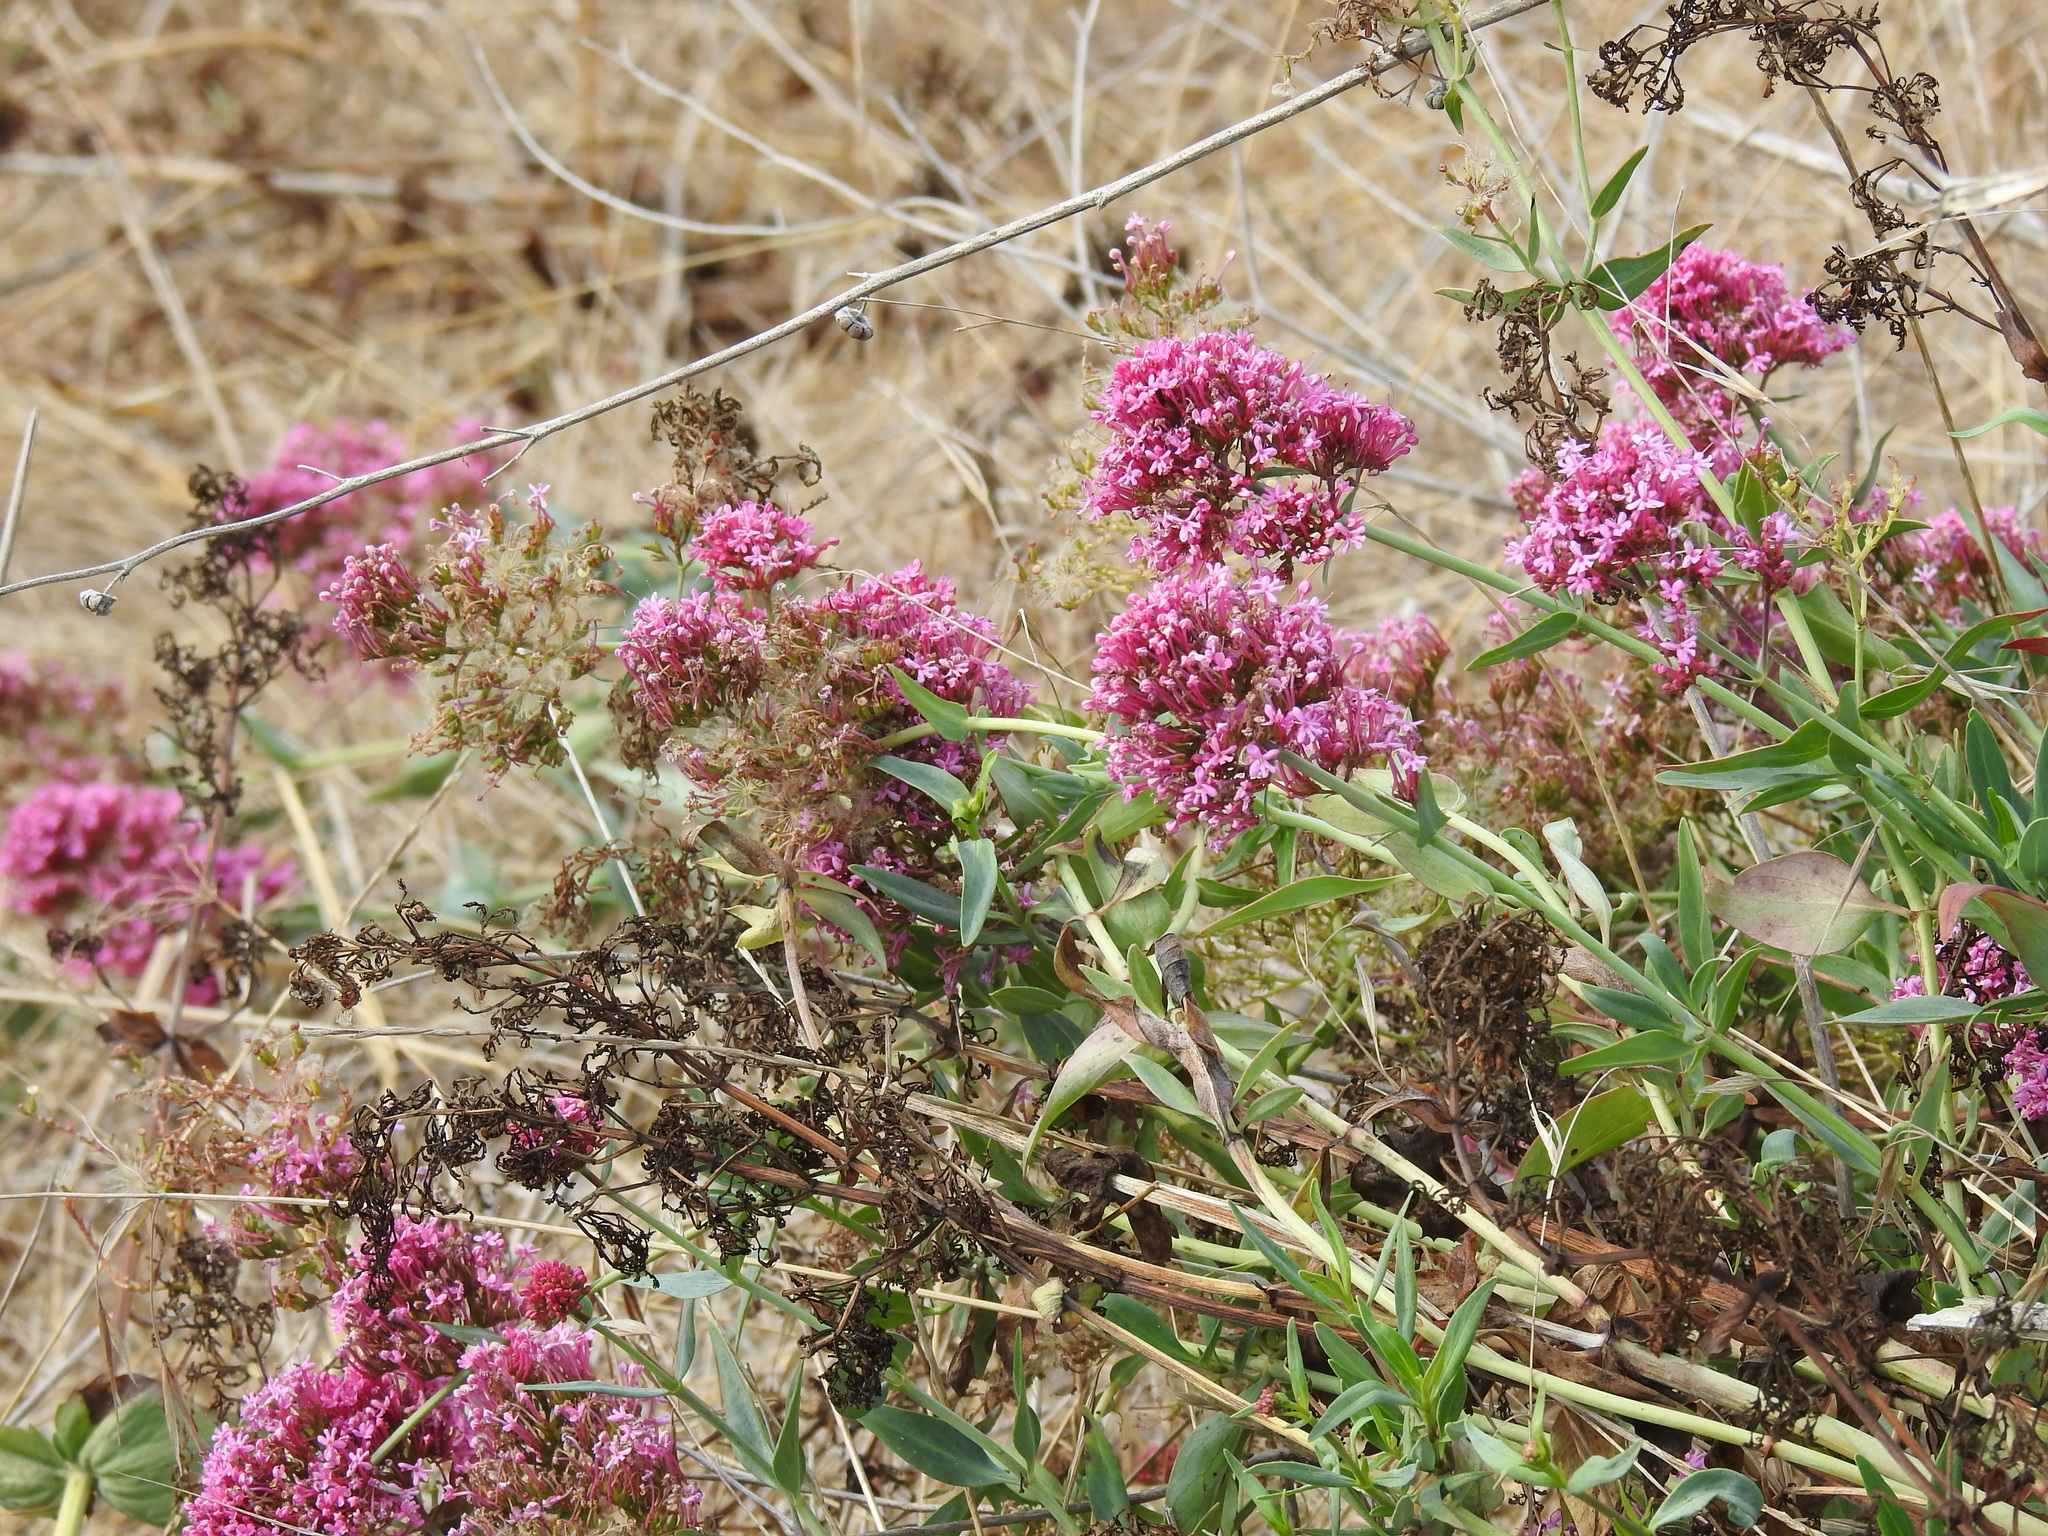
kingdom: Plantae
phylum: Tracheophyta
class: Magnoliopsida
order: Dipsacales
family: Caprifoliaceae
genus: Centranthus
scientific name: Centranthus ruber
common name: Red valerian
